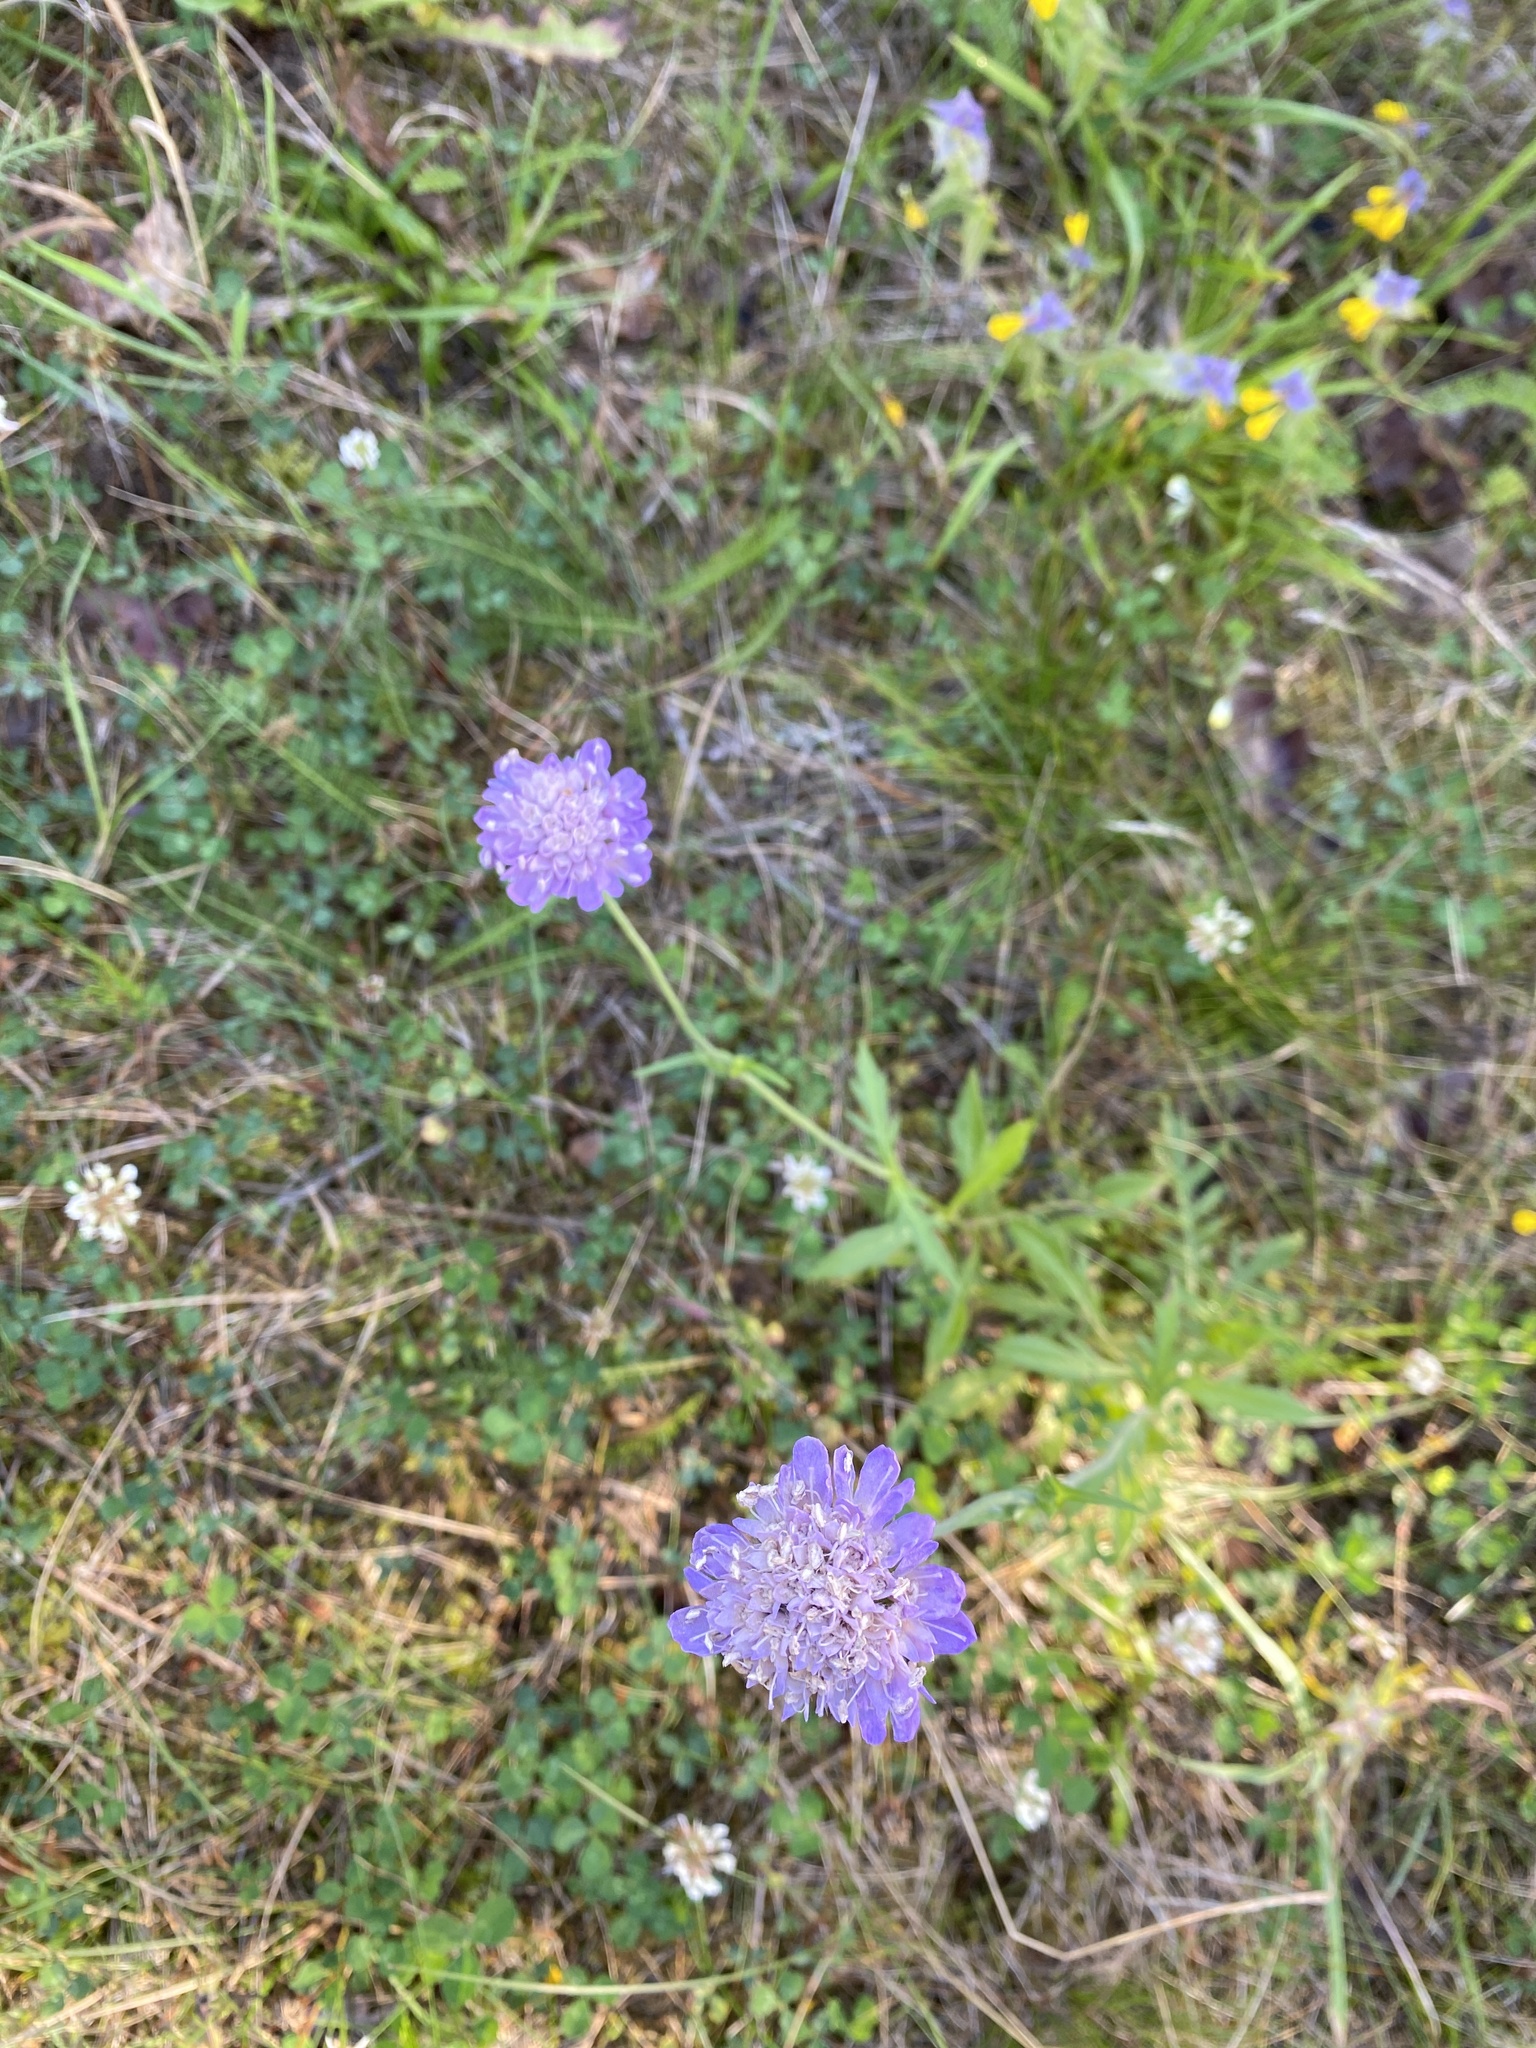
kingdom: Plantae
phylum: Tracheophyta
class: Magnoliopsida
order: Dipsacales
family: Caprifoliaceae
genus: Knautia
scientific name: Knautia arvensis
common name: Field scabiosa
